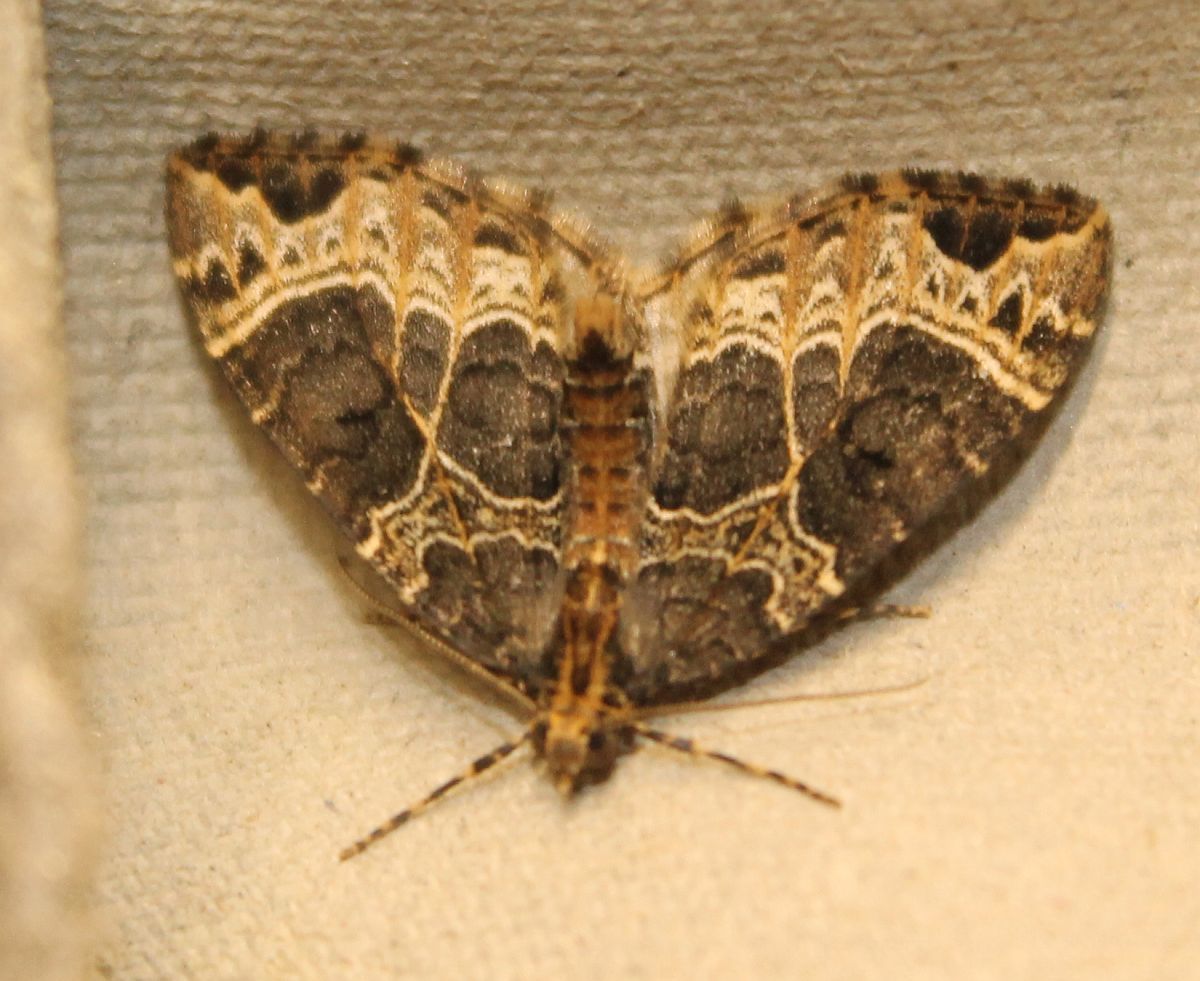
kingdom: Animalia
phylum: Arthropoda
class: Insecta
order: Lepidoptera
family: Geometridae
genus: Ecliptopera
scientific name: Ecliptopera silaceata
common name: Small phoenix
